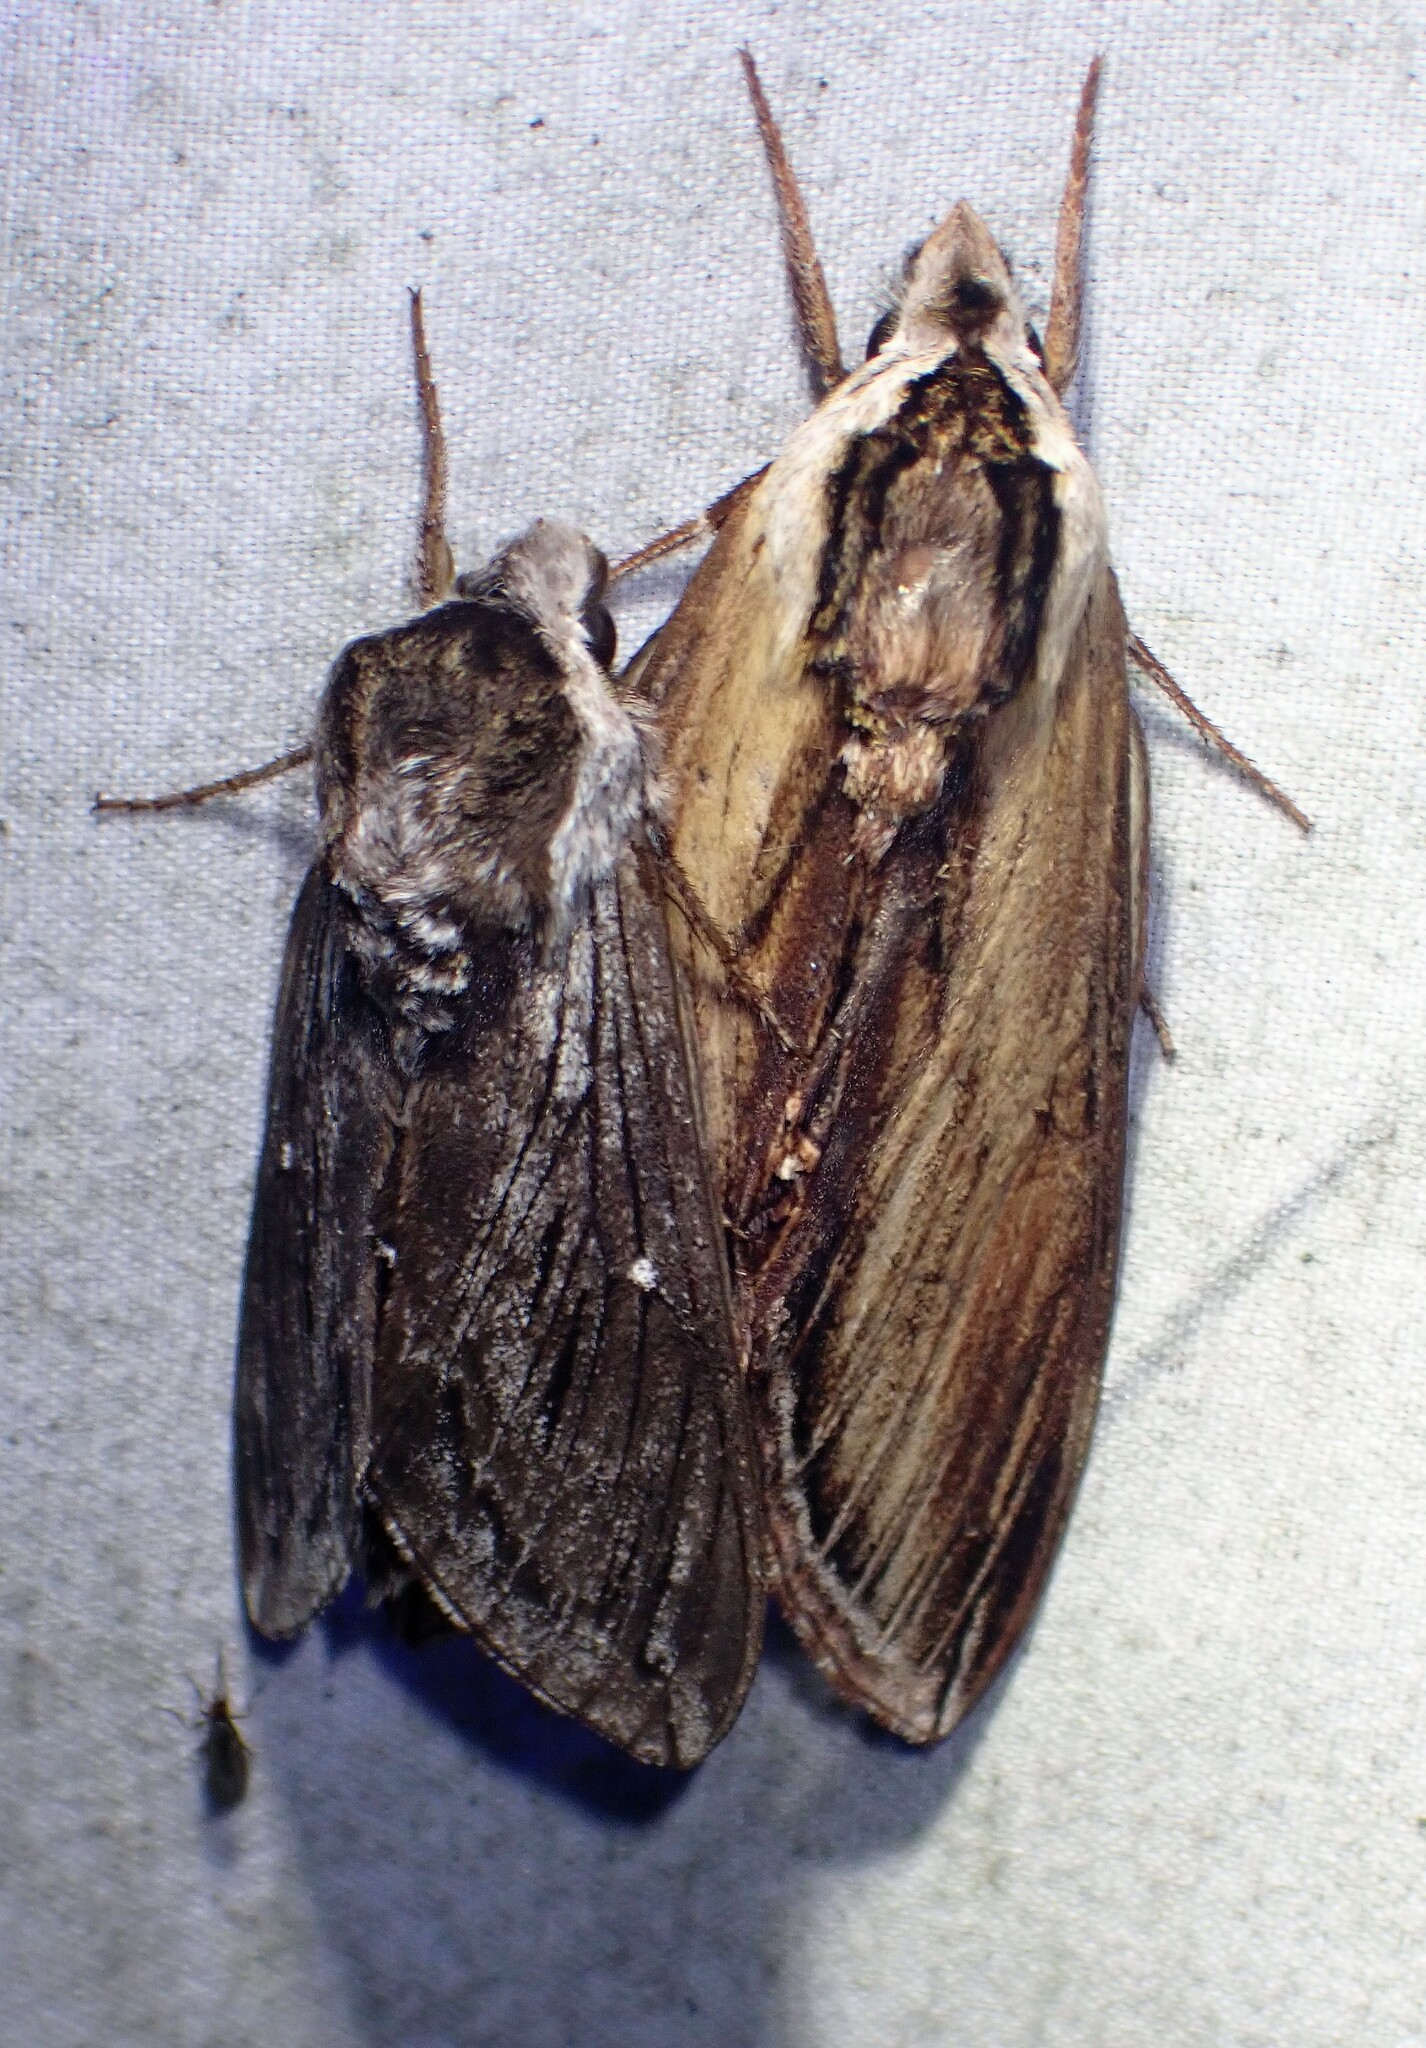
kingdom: Animalia
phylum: Arthropoda
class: Insecta
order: Lepidoptera
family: Sphingidae
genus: Sphinx
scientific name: Sphinx poecila
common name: Northern apple sphinx
